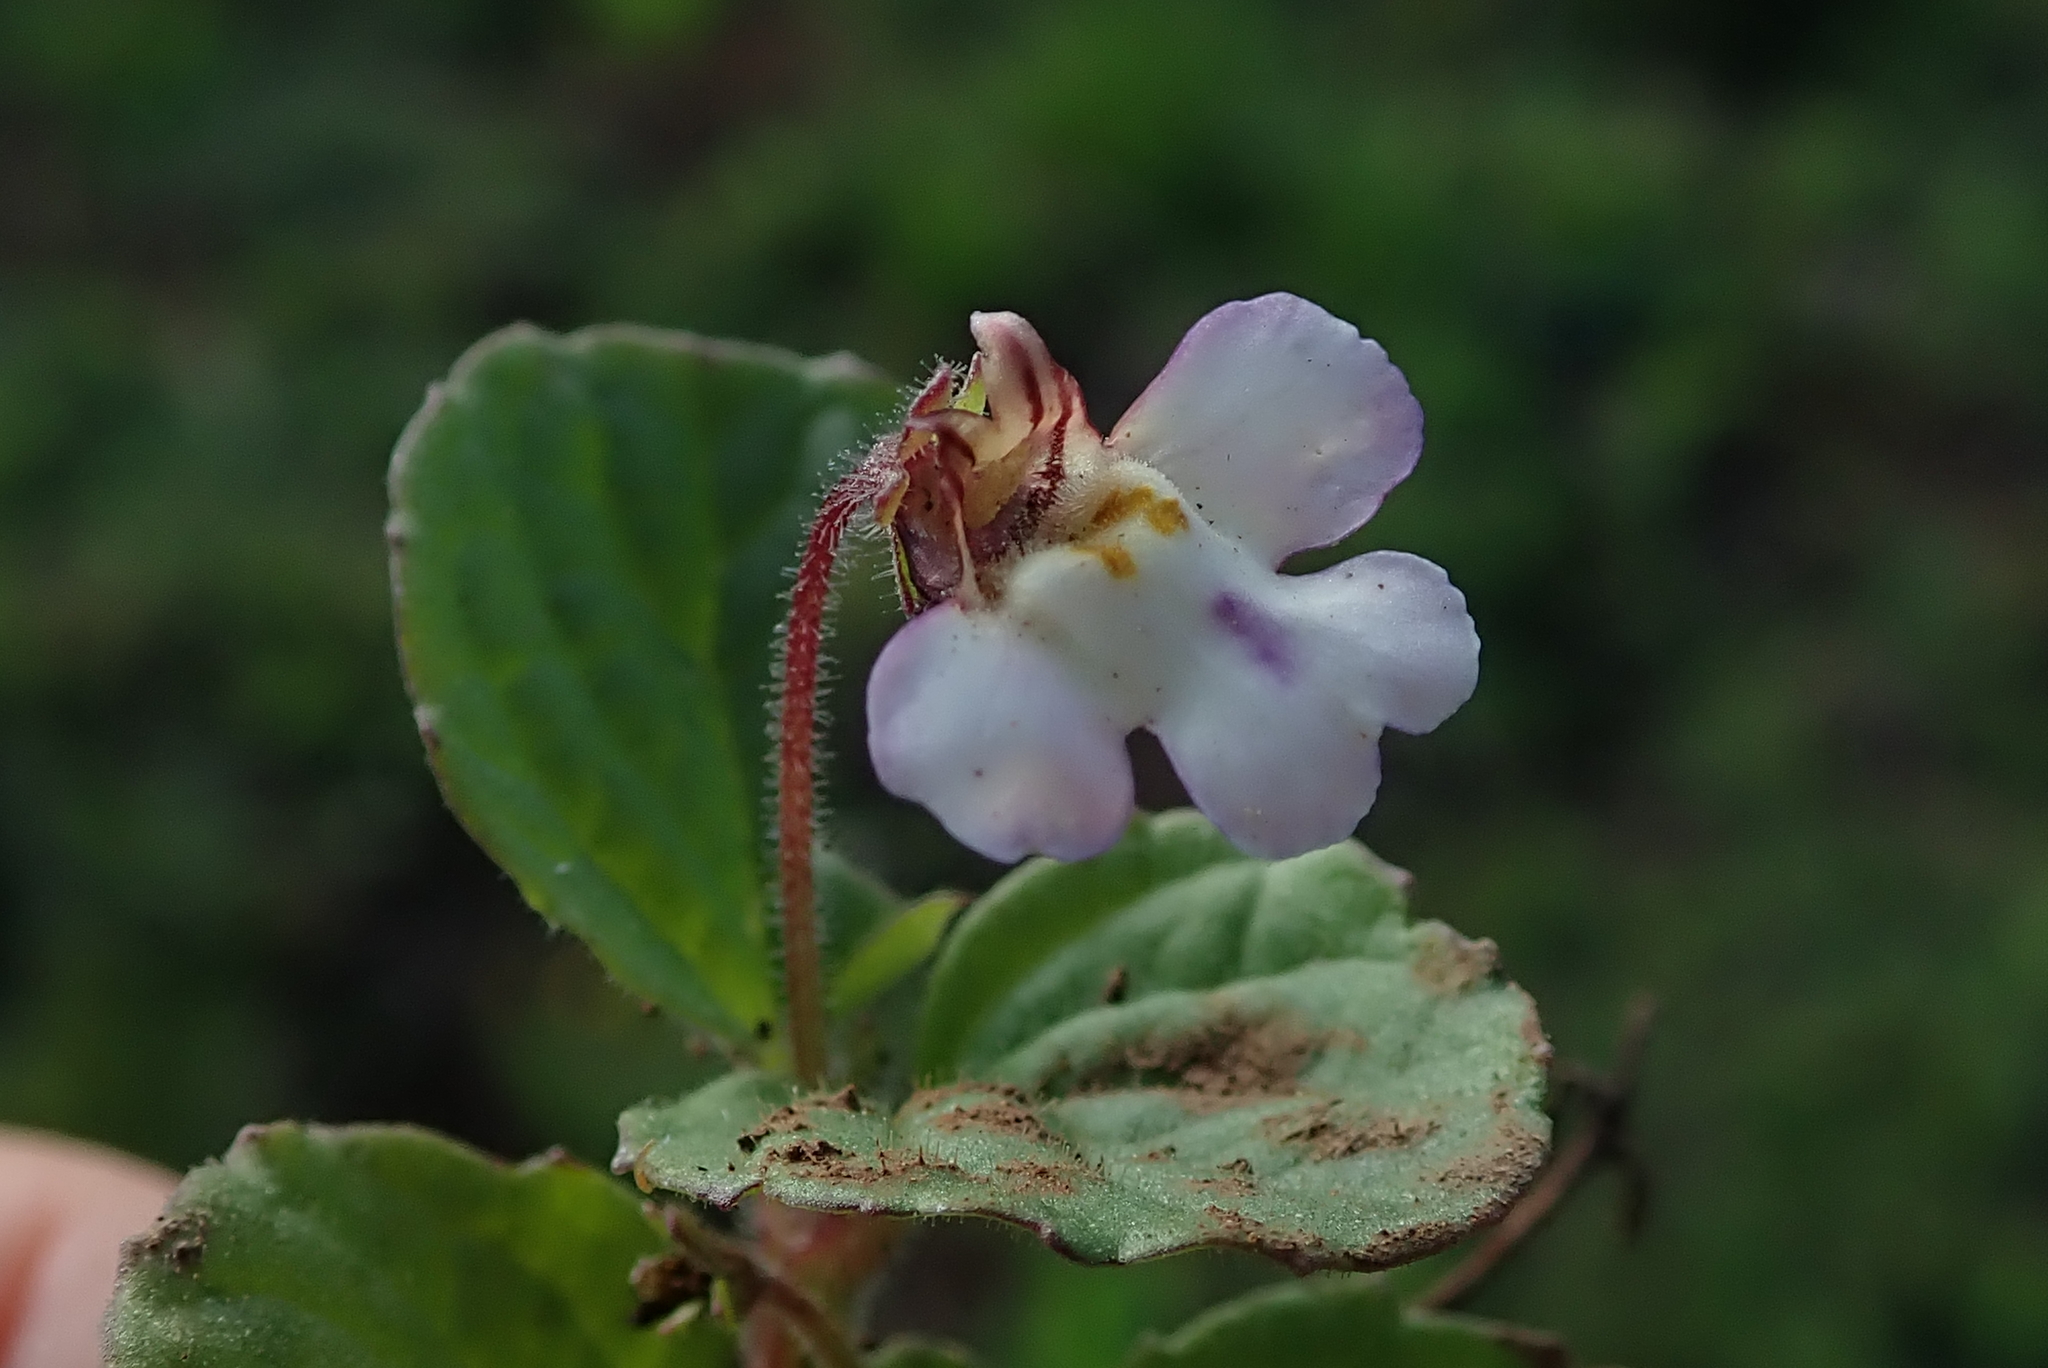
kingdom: Plantae
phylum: Tracheophyta
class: Magnoliopsida
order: Lamiales
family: Scrophulariaceae
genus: Diclis
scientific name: Diclis reptans
